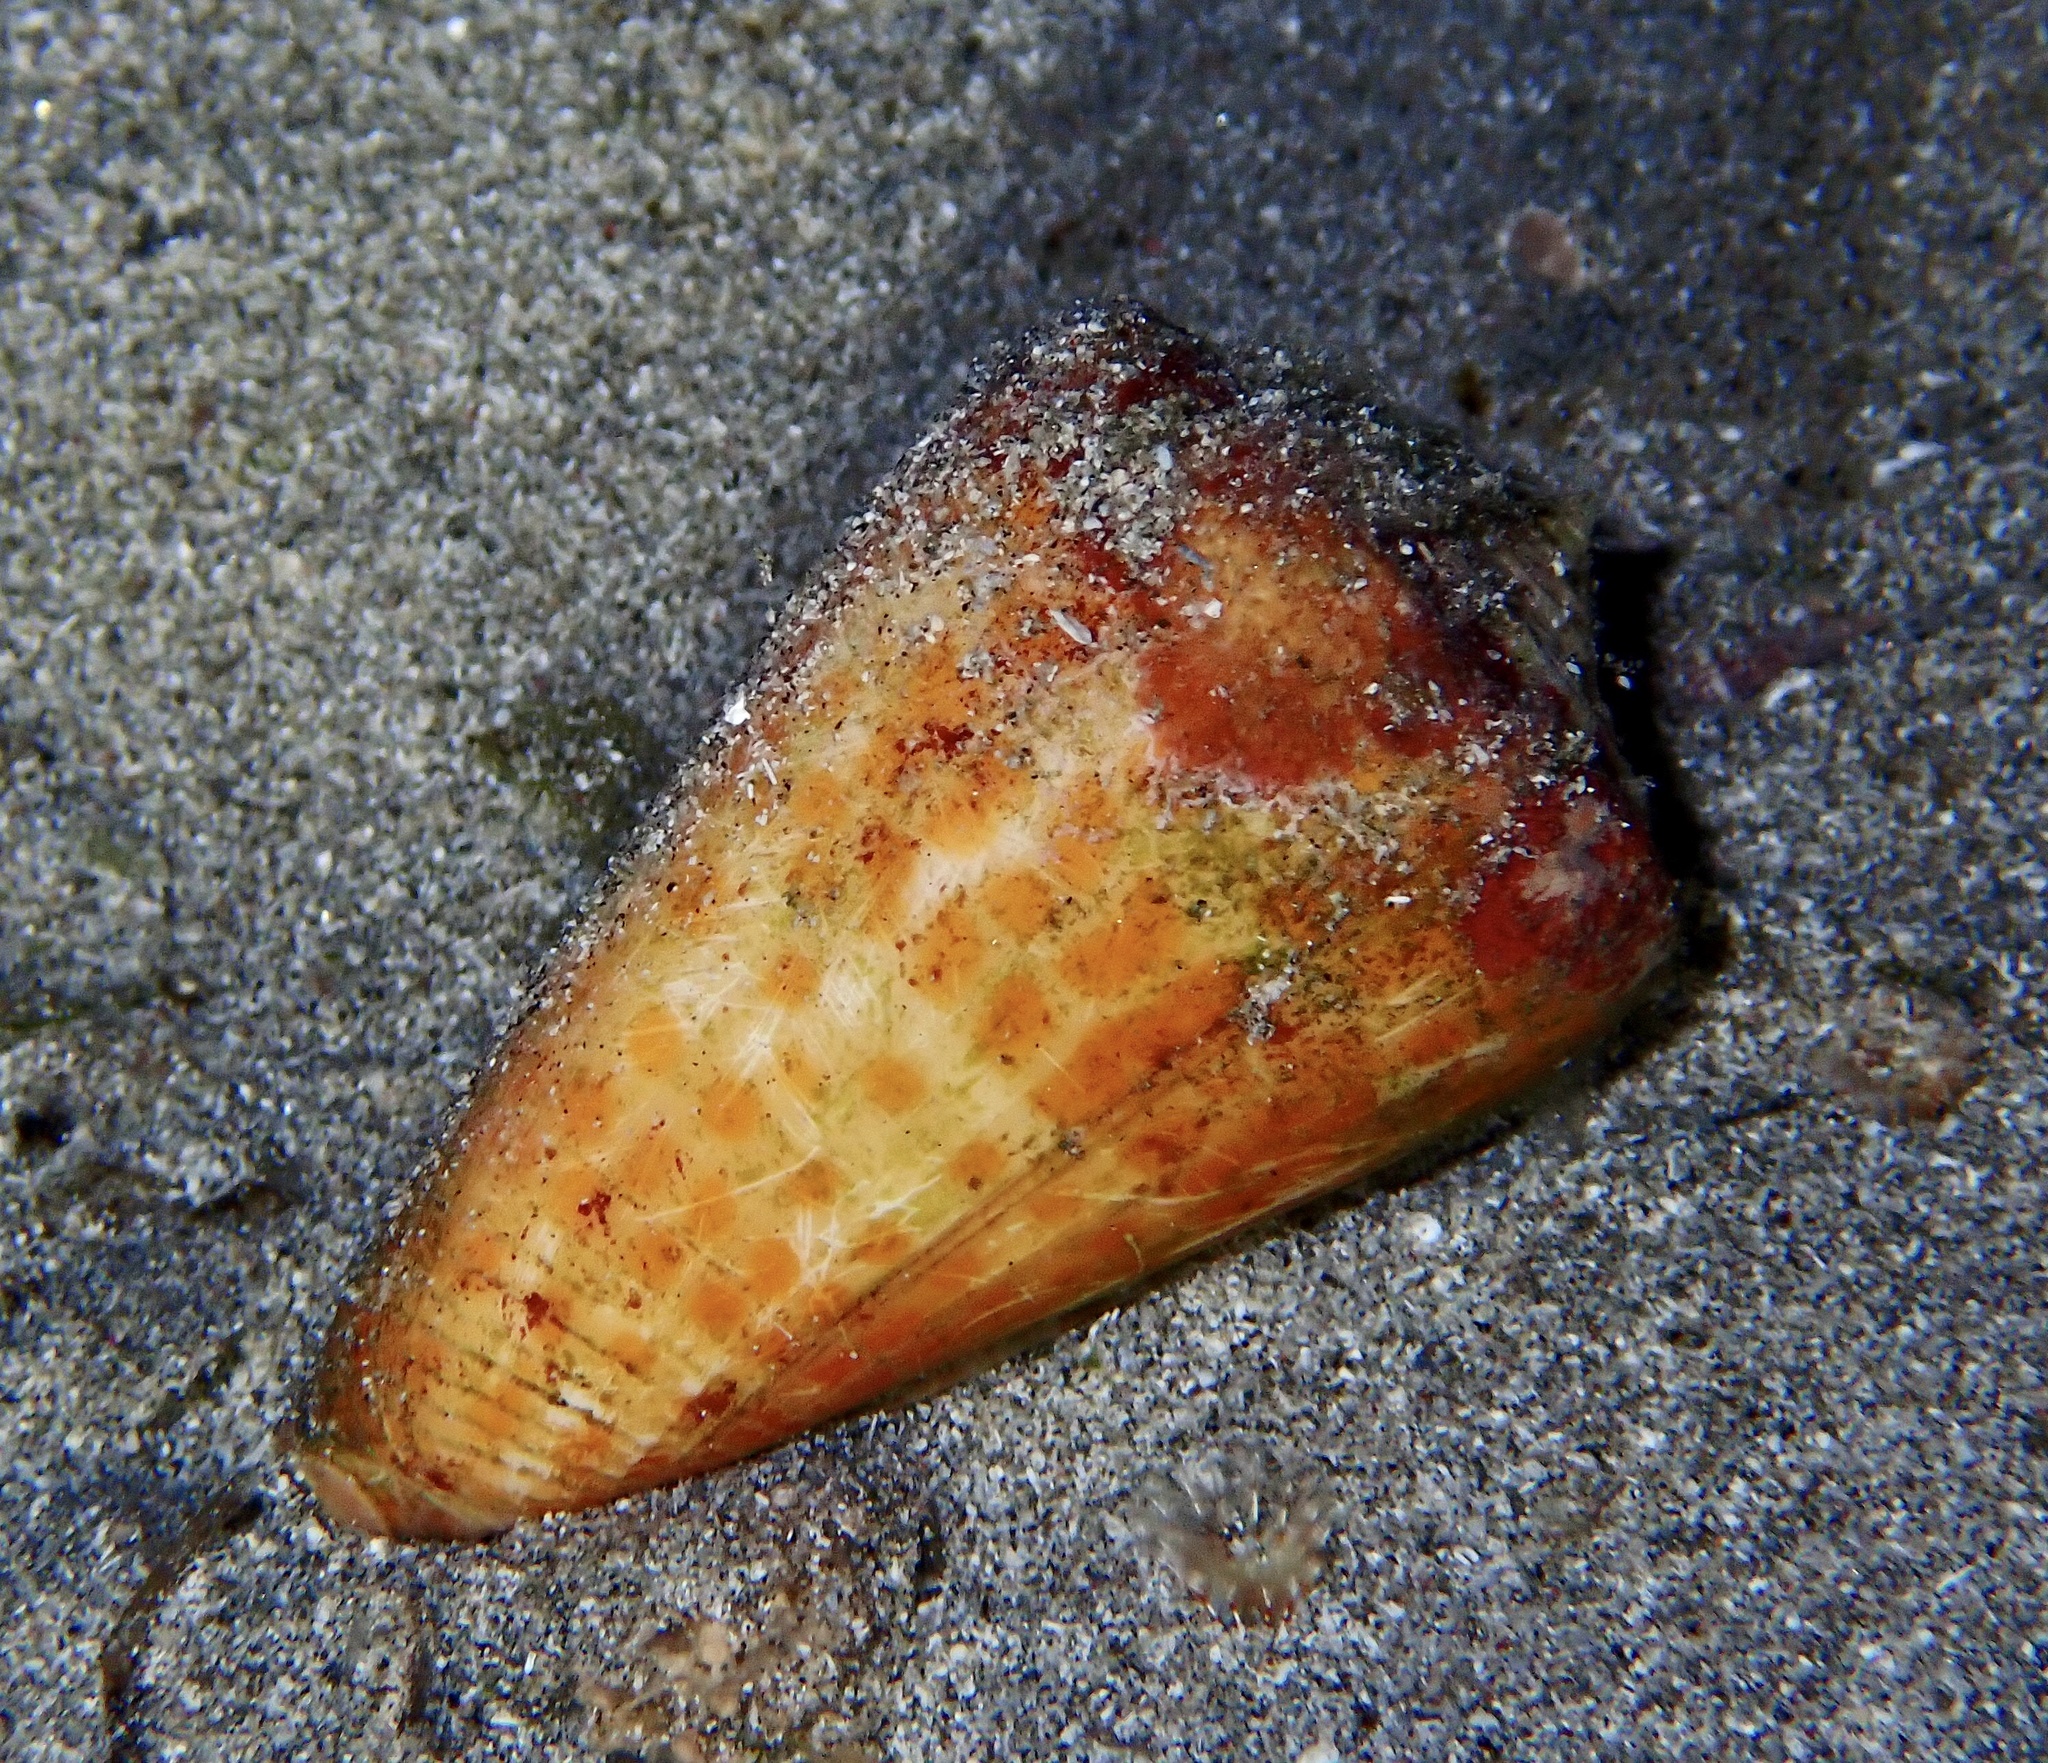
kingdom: Animalia
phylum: Mollusca
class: Gastropoda
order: Neogastropoda
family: Conidae
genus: Conus
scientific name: Conus tessulatus
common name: Tessellate cone
